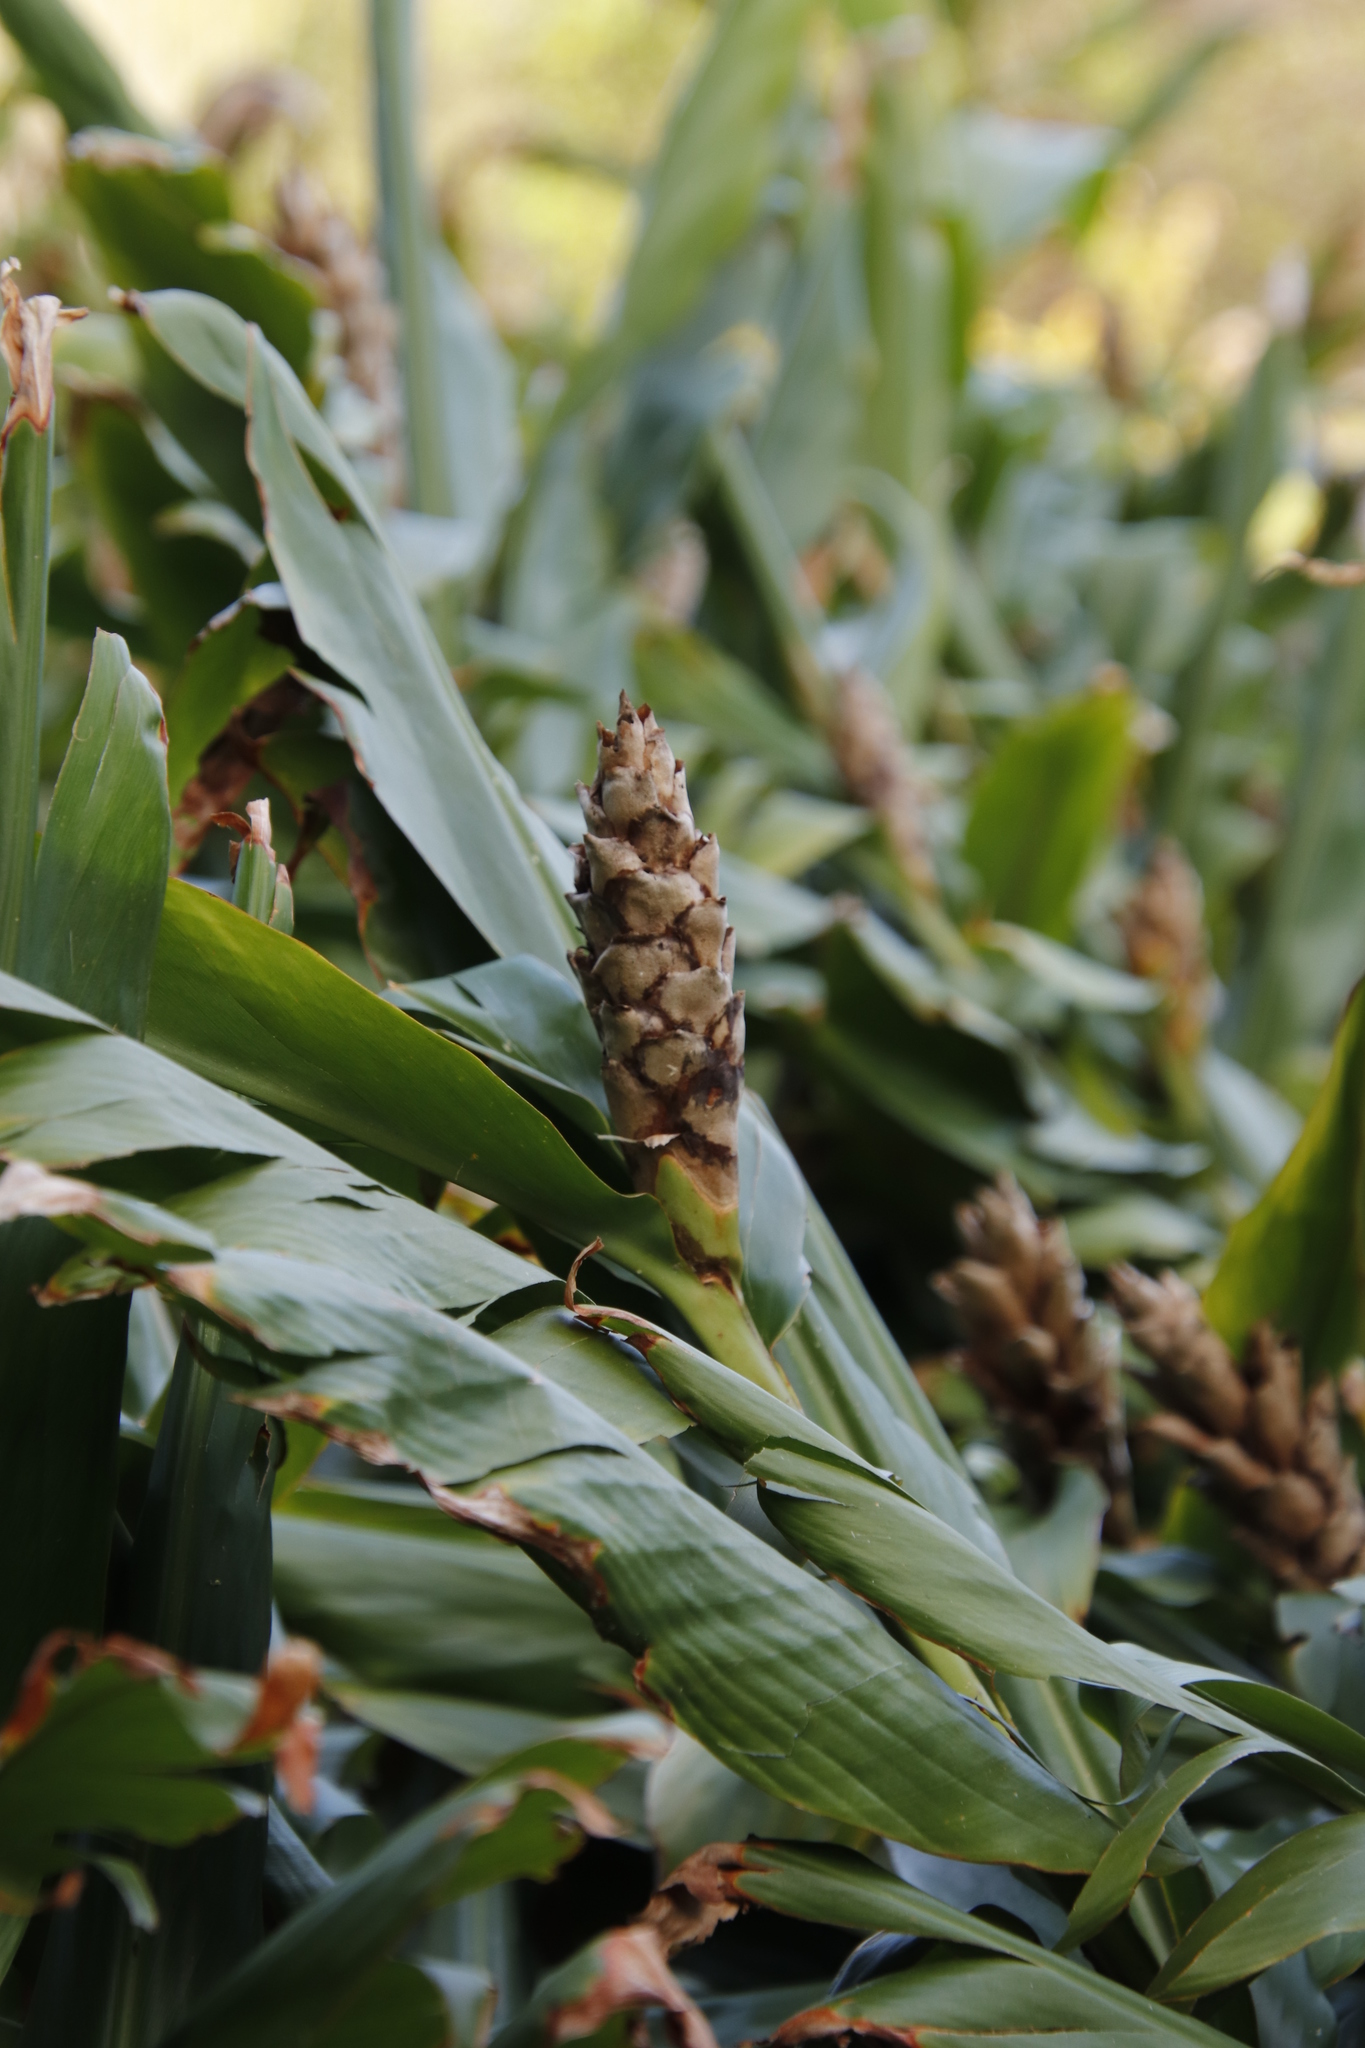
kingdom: Plantae
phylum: Tracheophyta
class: Liliopsida
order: Zingiberales
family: Zingiberaceae
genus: Hedychium
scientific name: Hedychium gardnerianum
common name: Himalayan ginger
